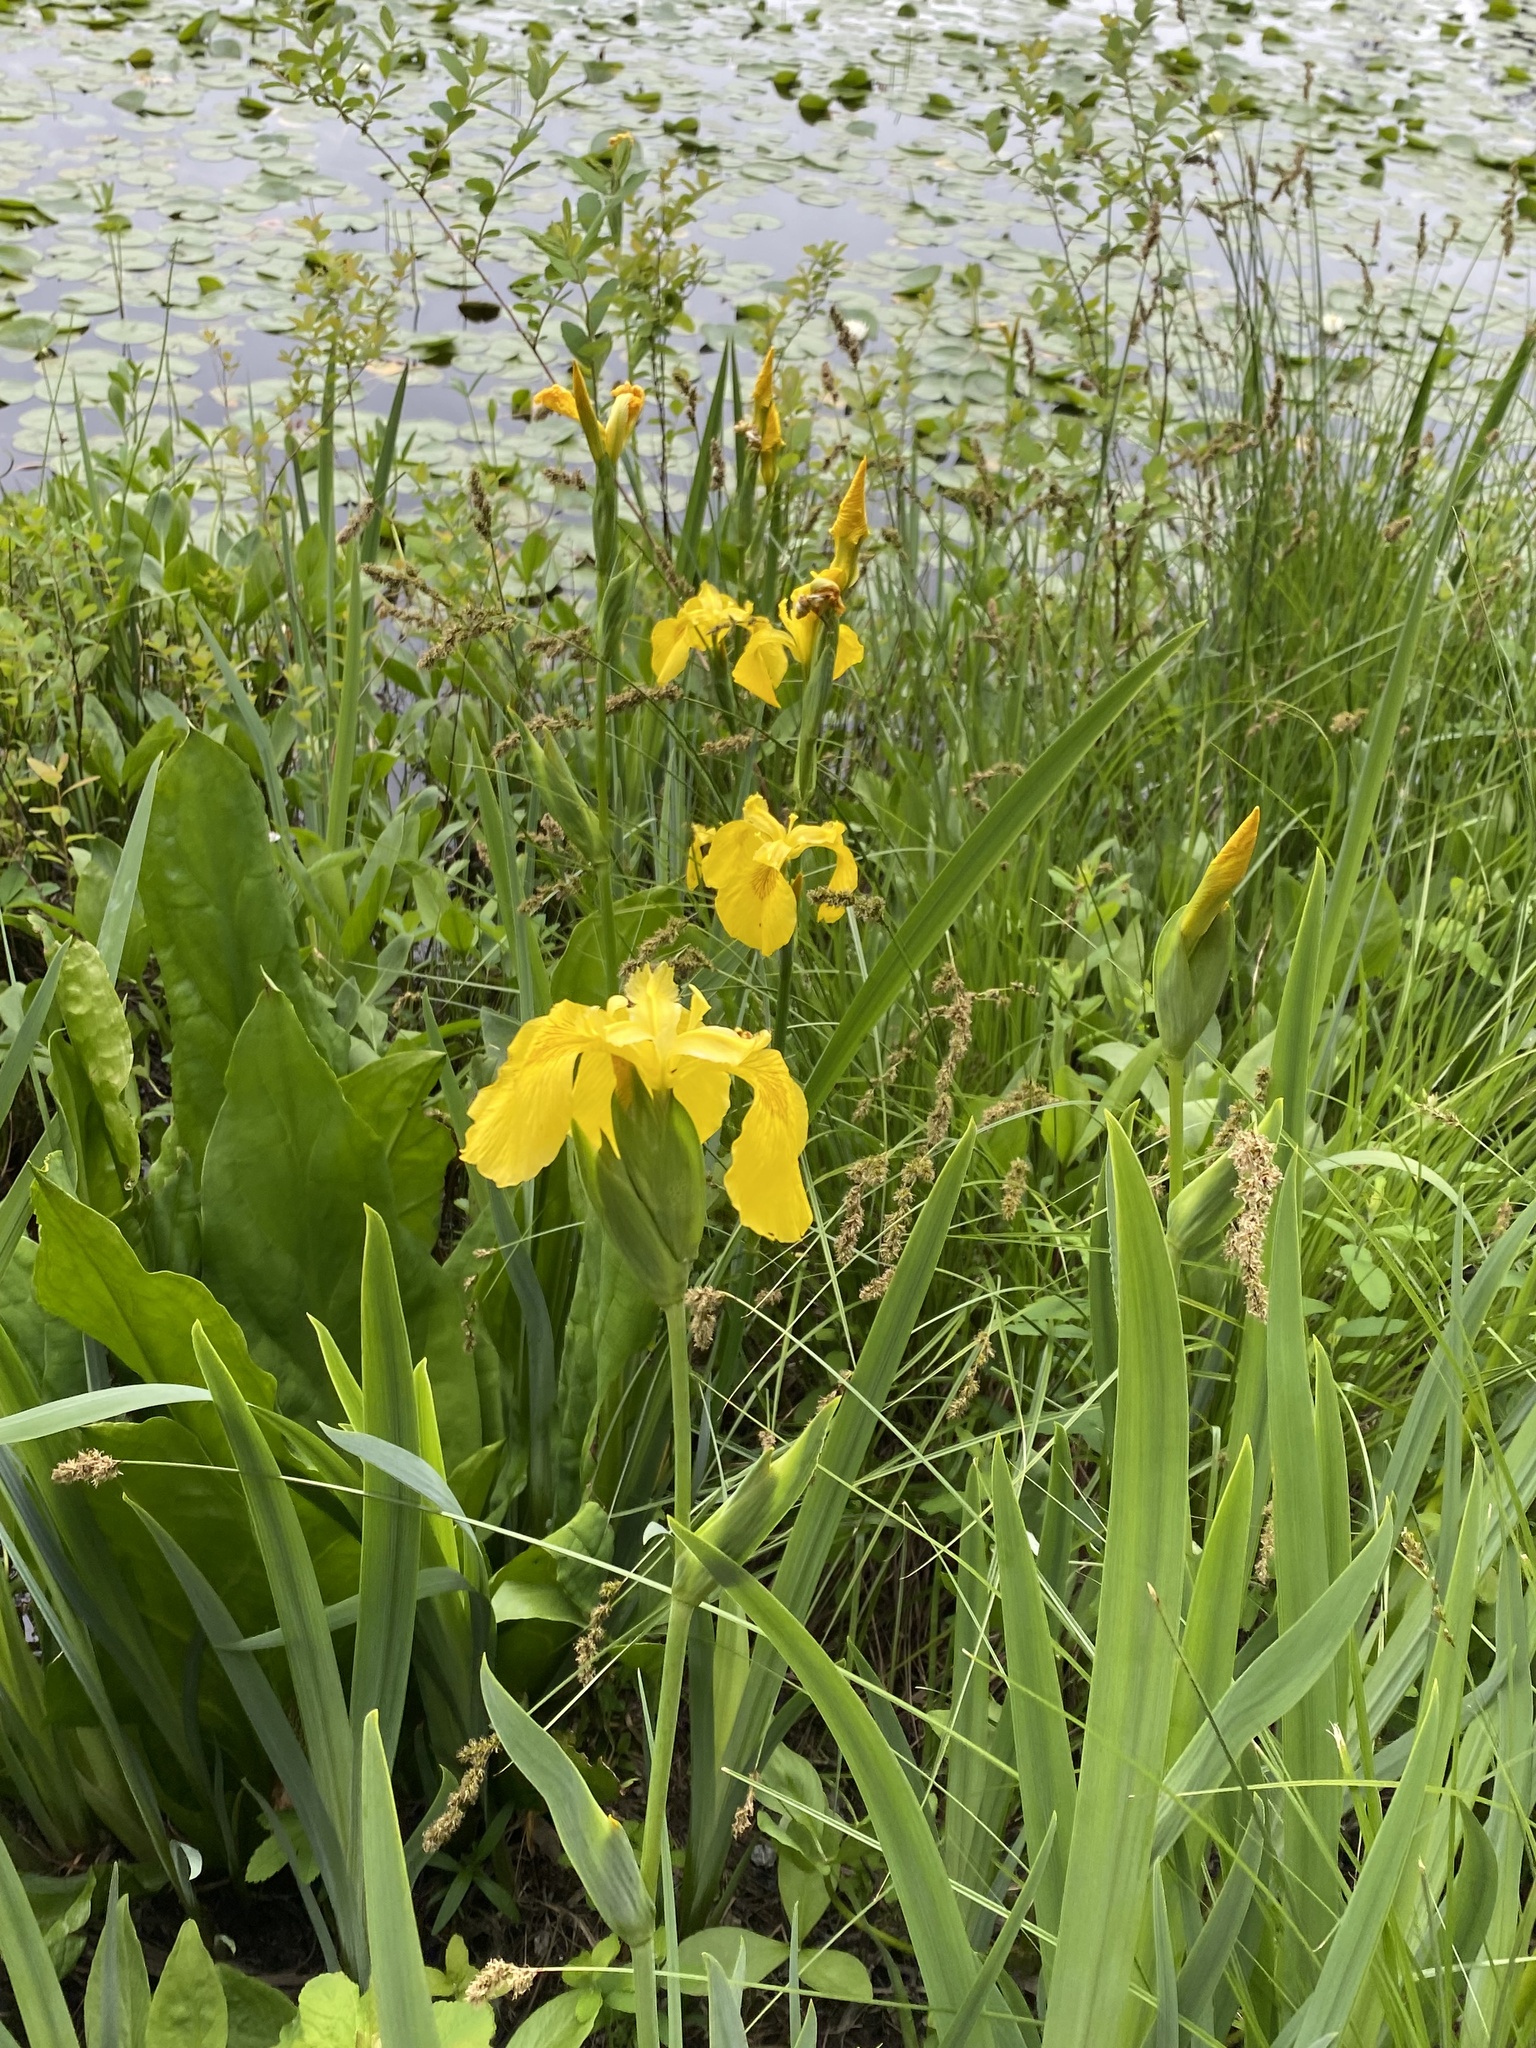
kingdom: Plantae
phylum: Tracheophyta
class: Liliopsida
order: Asparagales
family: Iridaceae
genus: Iris
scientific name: Iris pseudacorus
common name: Yellow flag
